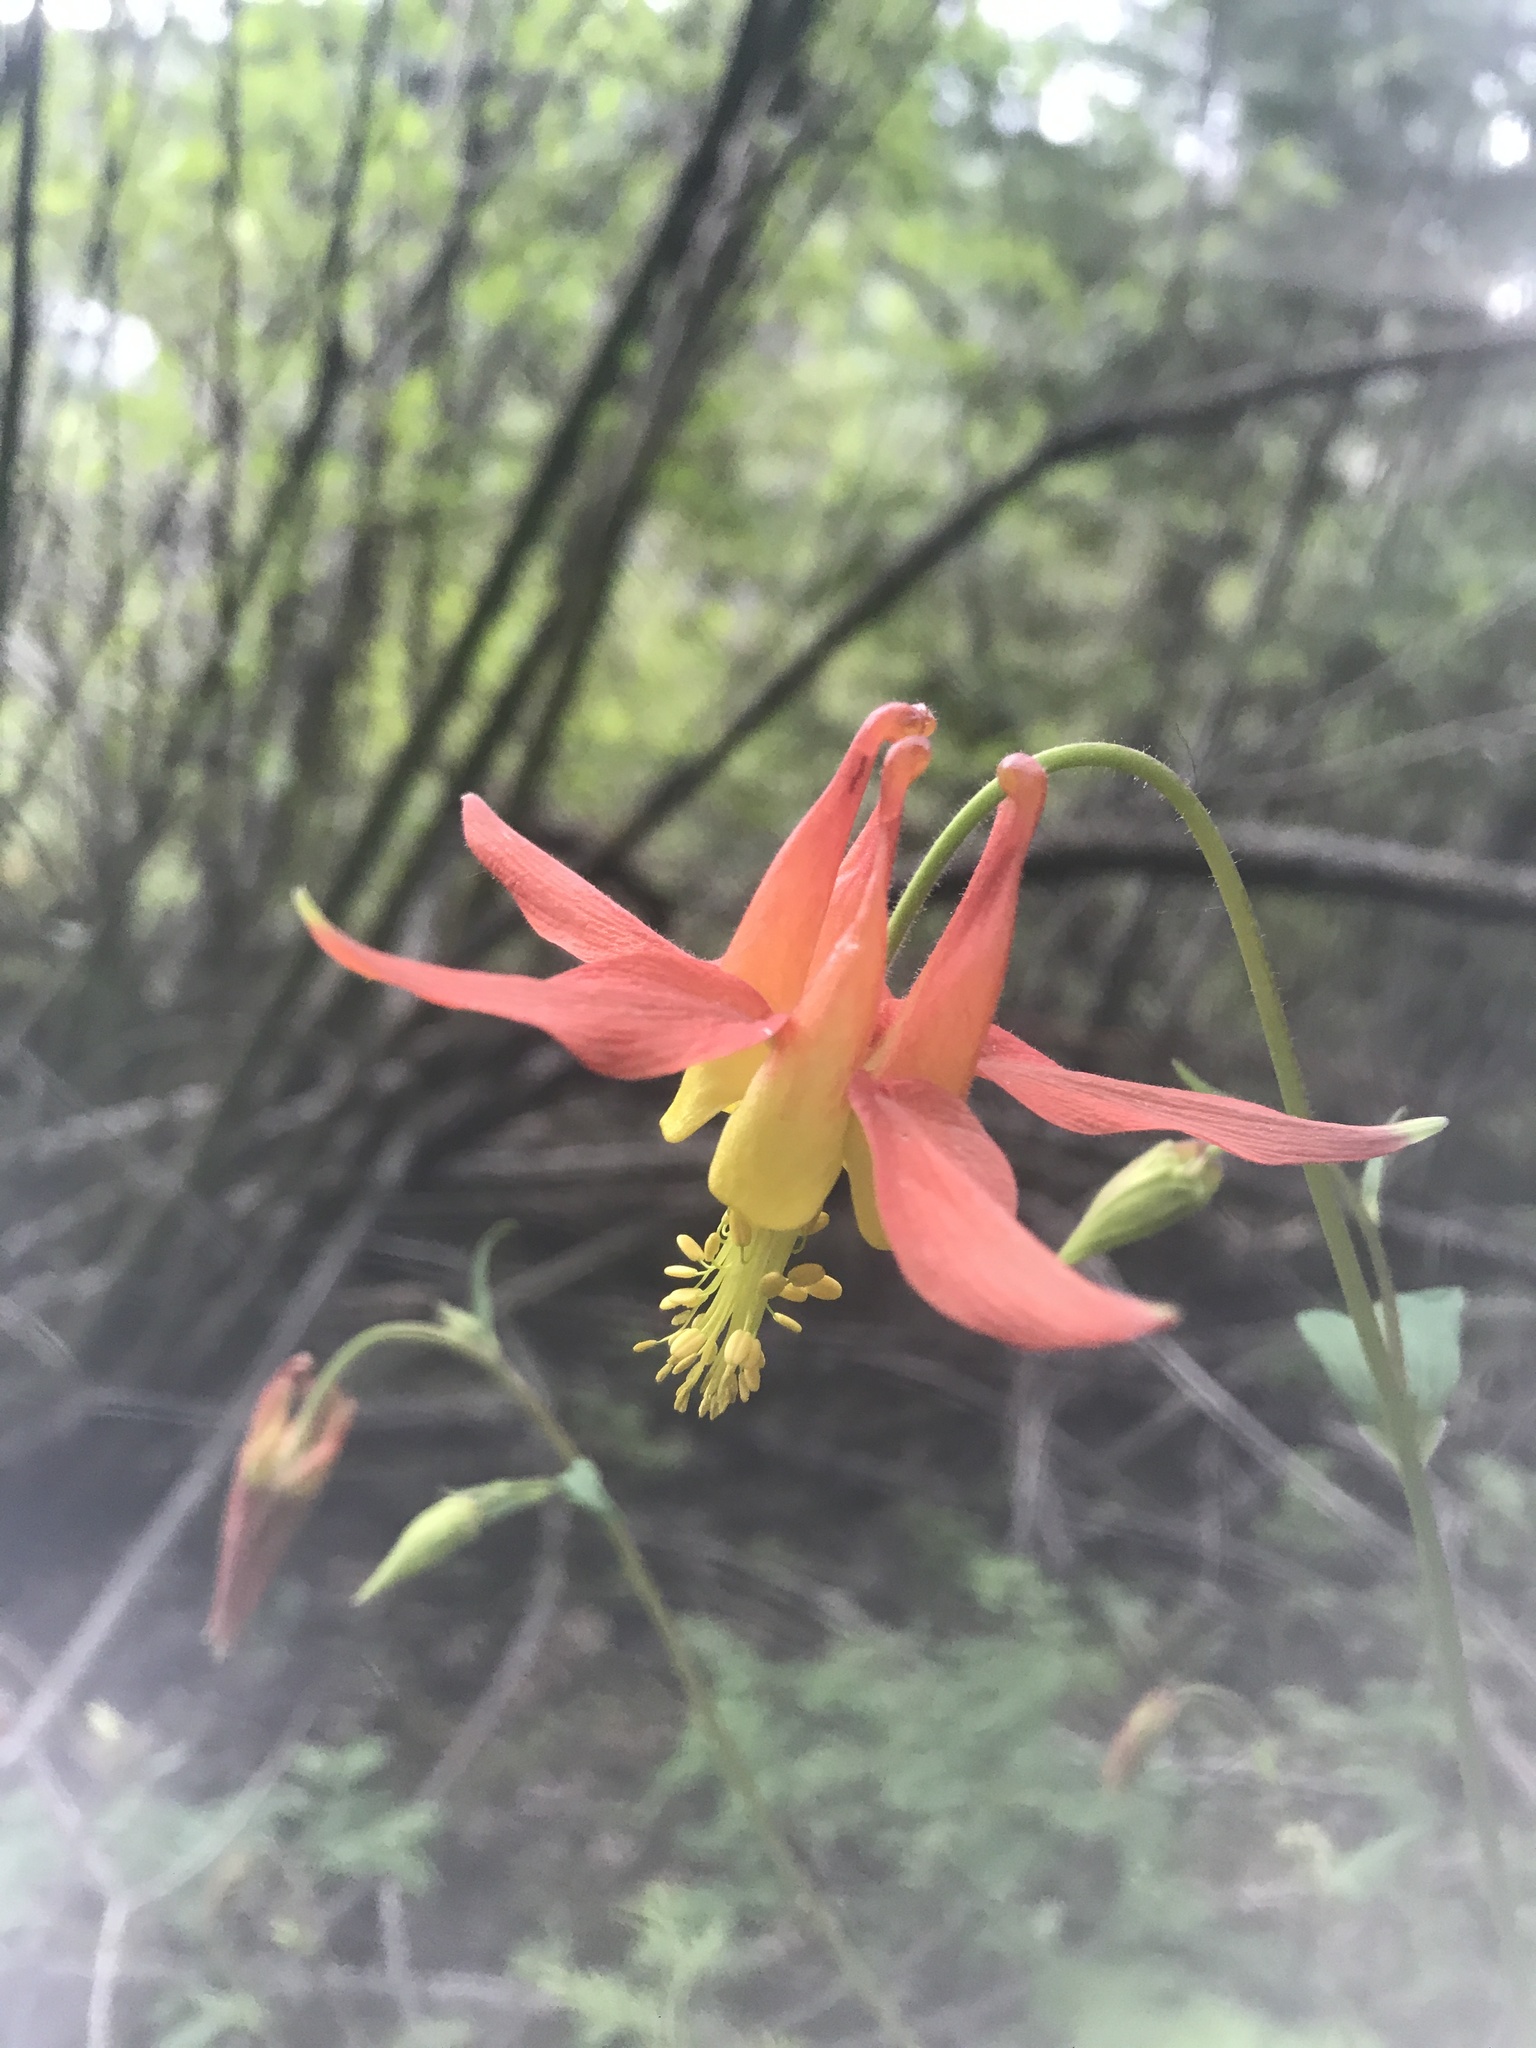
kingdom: Plantae
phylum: Tracheophyta
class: Magnoliopsida
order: Ranunculales
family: Ranunculaceae
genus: Aquilegia
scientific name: Aquilegia formosa
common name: Sitka columbine
